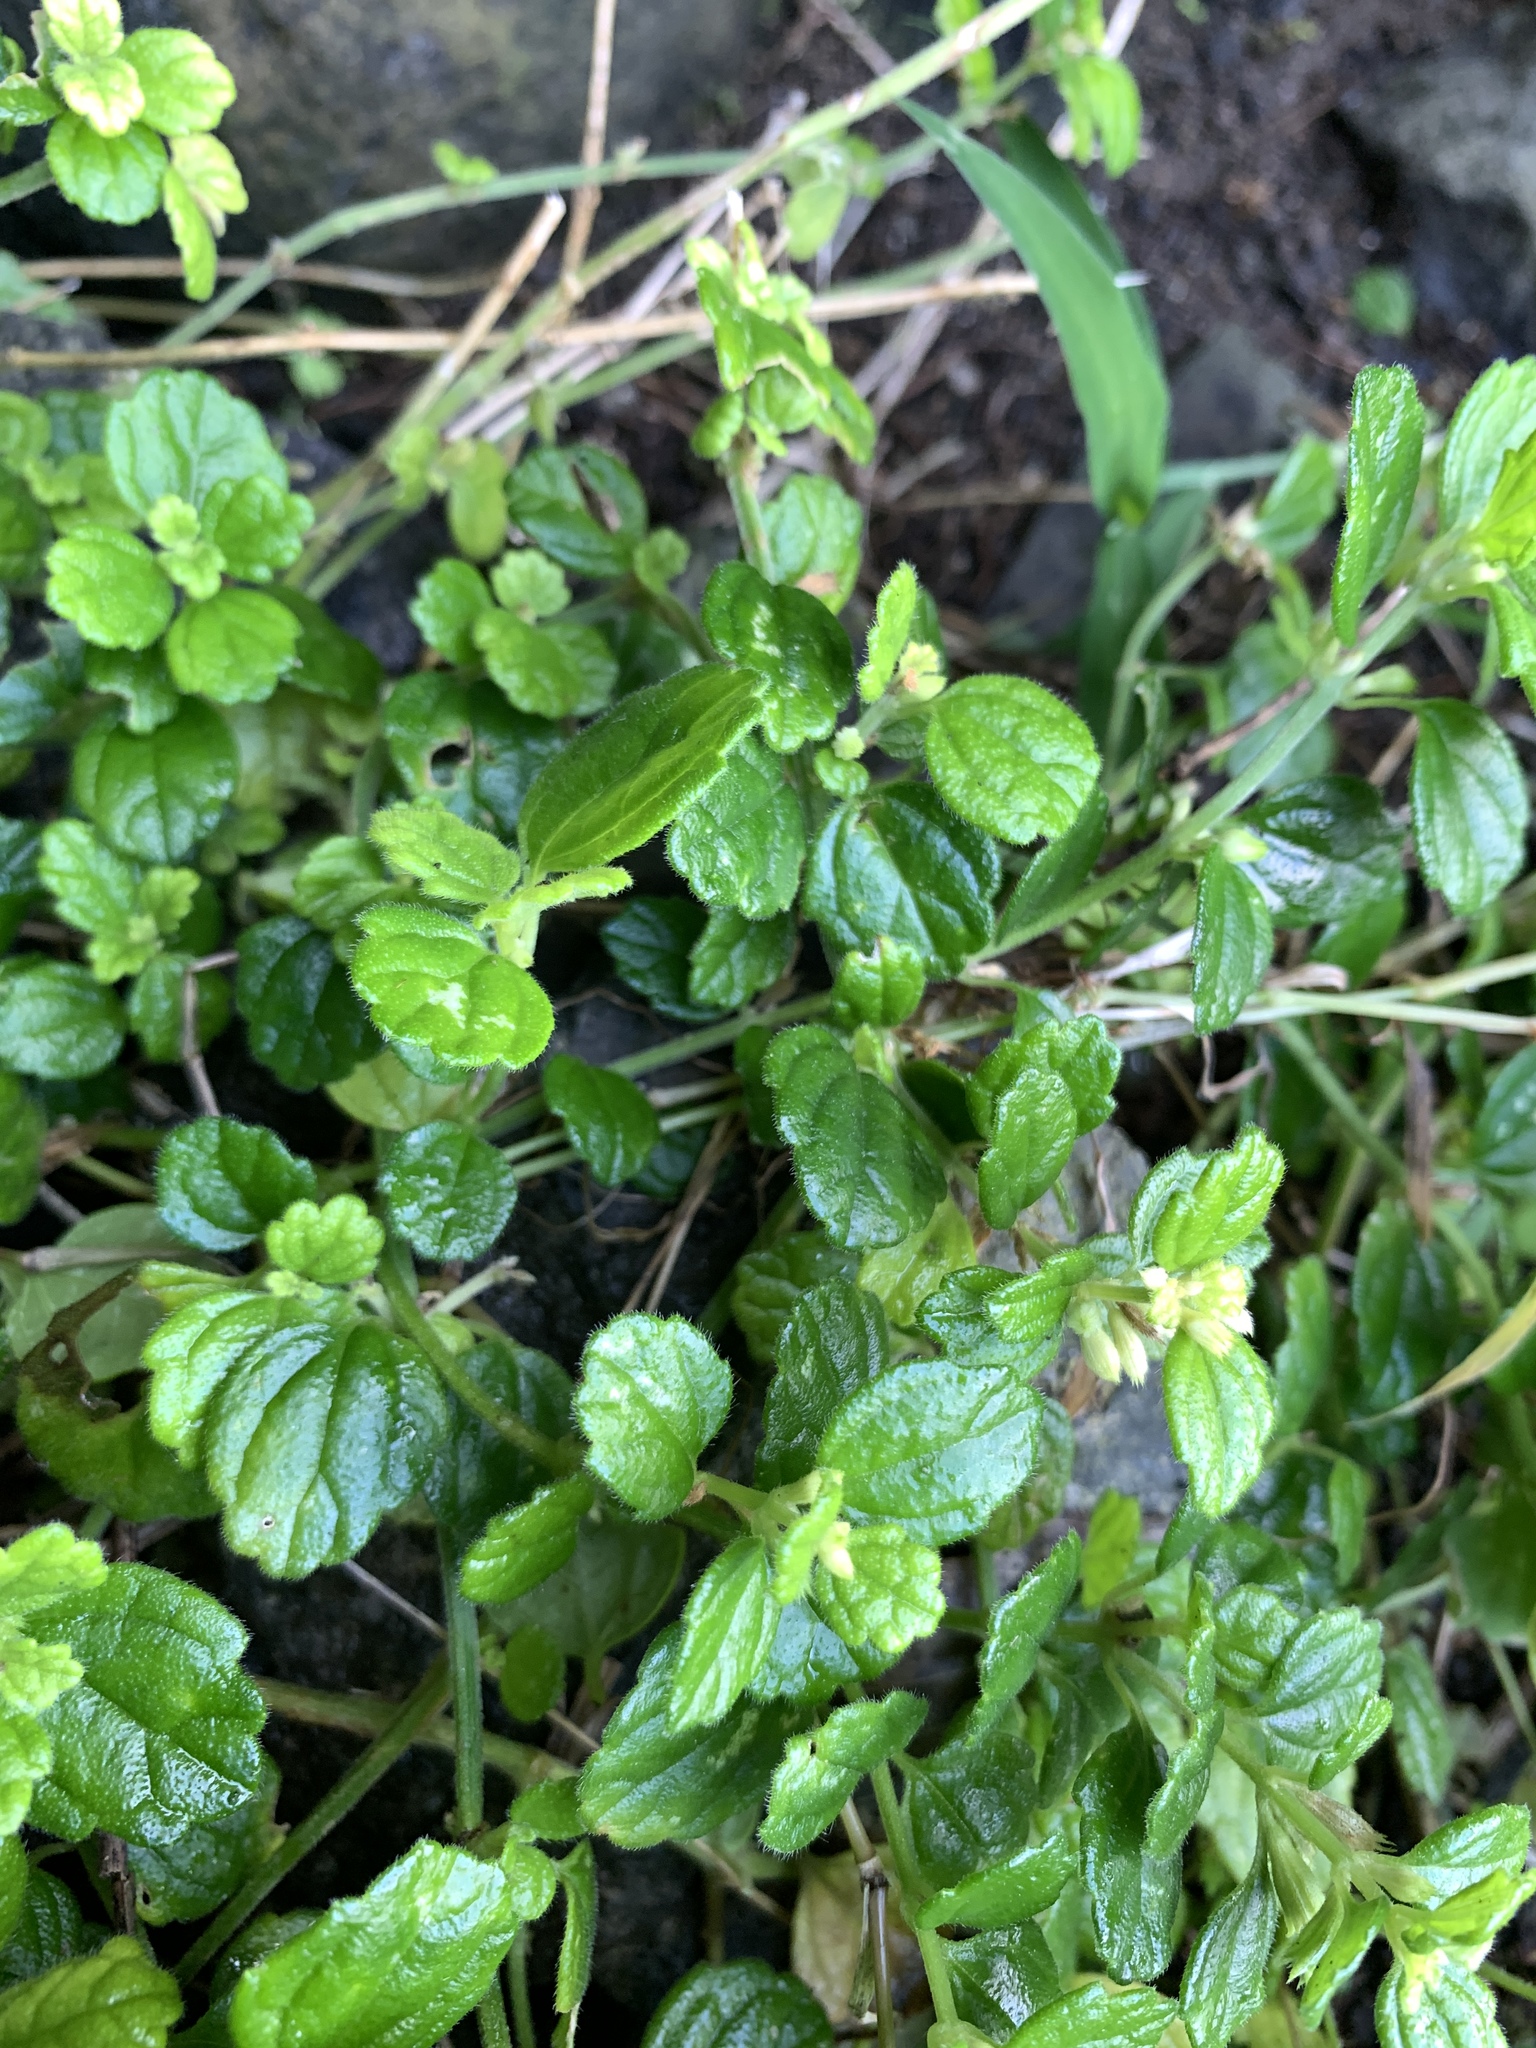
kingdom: Plantae
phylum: Tracheophyta
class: Magnoliopsida
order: Lamiales
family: Lamiaceae
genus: Leucas
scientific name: Leucas chinensis
